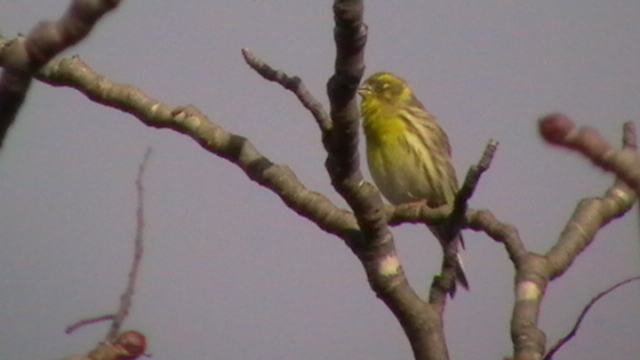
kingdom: Animalia
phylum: Chordata
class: Aves
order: Passeriformes
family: Fringillidae
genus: Serinus
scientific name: Serinus serinus
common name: European serin
